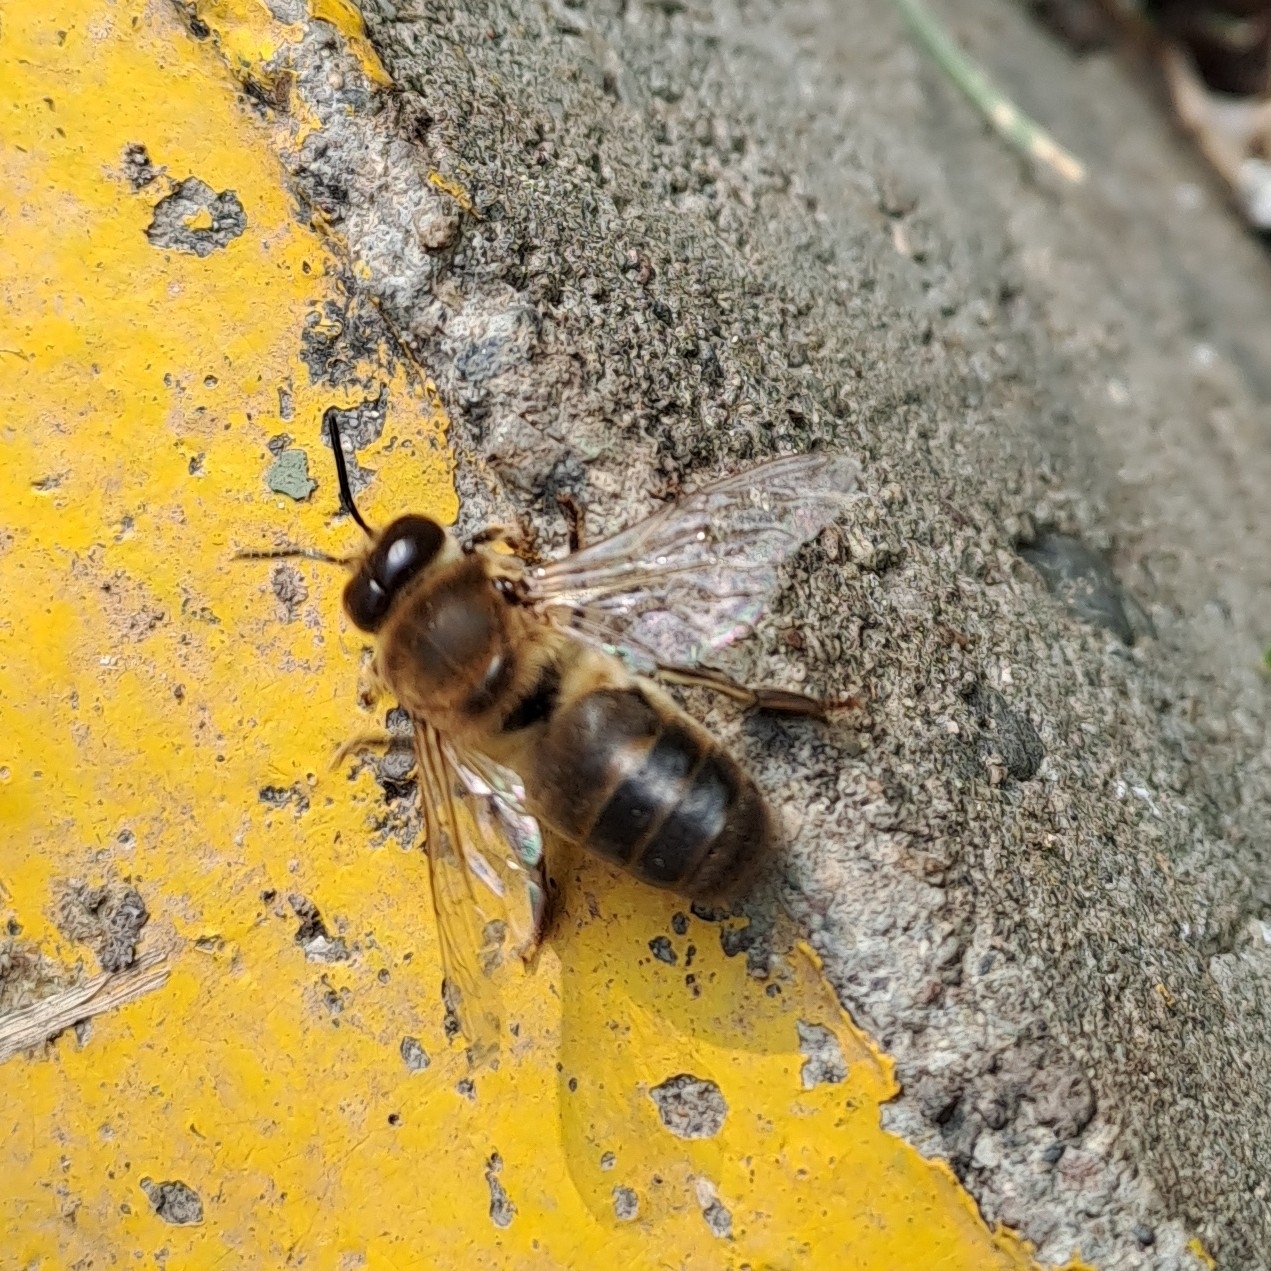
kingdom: Animalia
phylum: Arthropoda
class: Insecta
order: Hymenoptera
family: Apidae
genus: Apis
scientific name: Apis mellifera
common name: Honey bee
